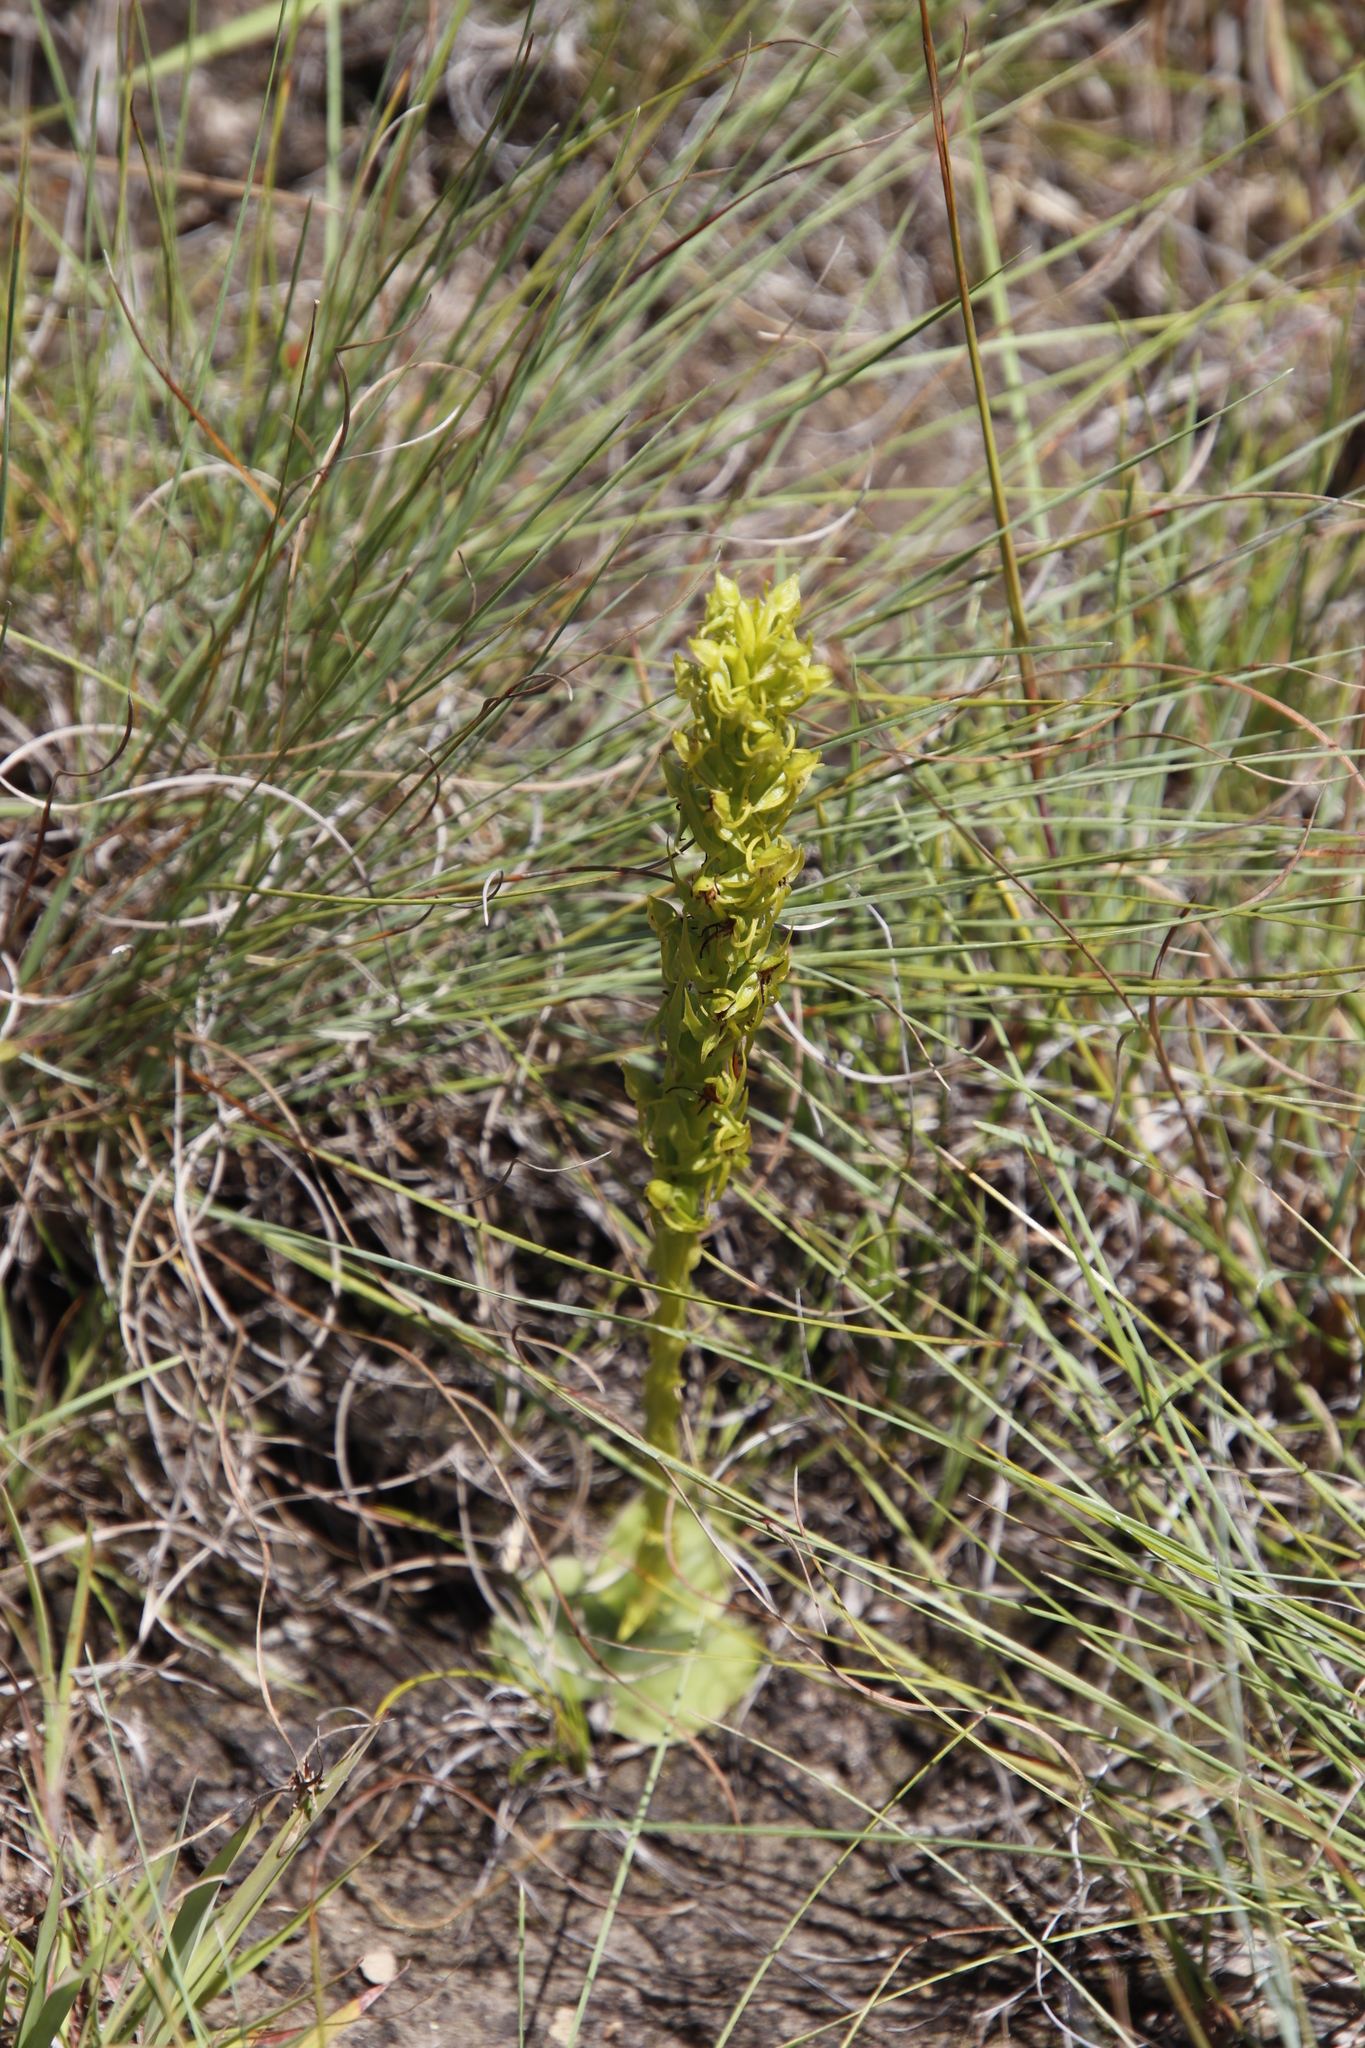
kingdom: Plantae
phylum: Tracheophyta
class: Liliopsida
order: Asparagales
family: Orchidaceae
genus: Habenaria
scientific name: Habenaria lithophila
